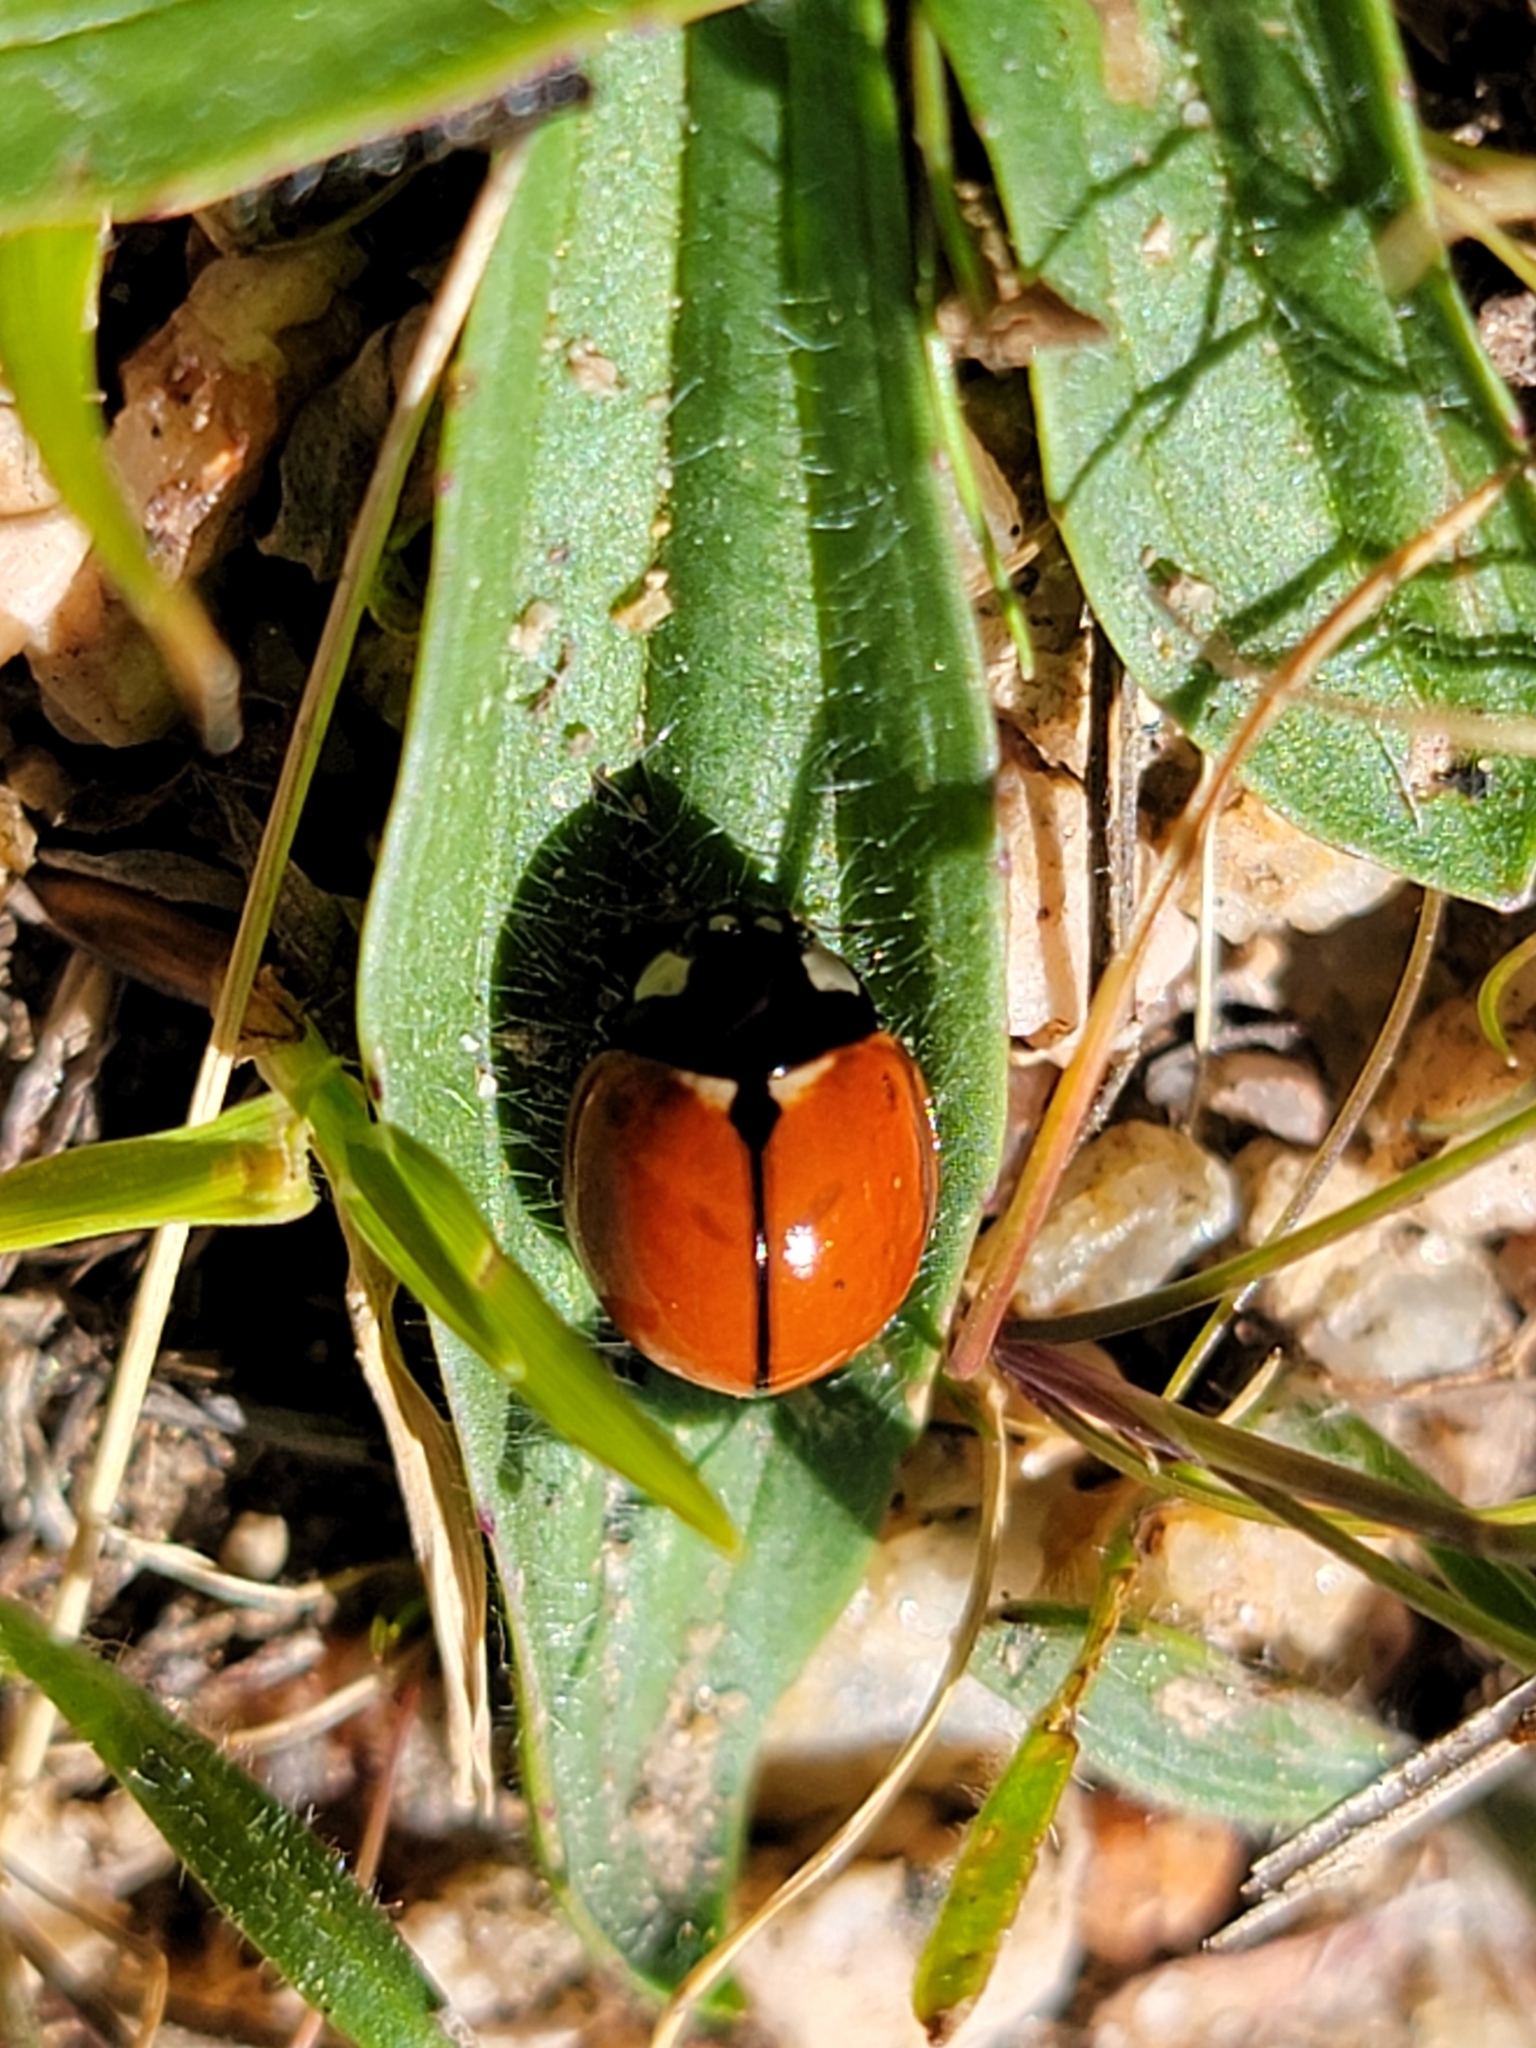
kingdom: Animalia
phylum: Arthropoda
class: Insecta
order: Coleoptera
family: Coccinellidae
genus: Coccinella
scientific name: Coccinella californica
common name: Lady beetle
